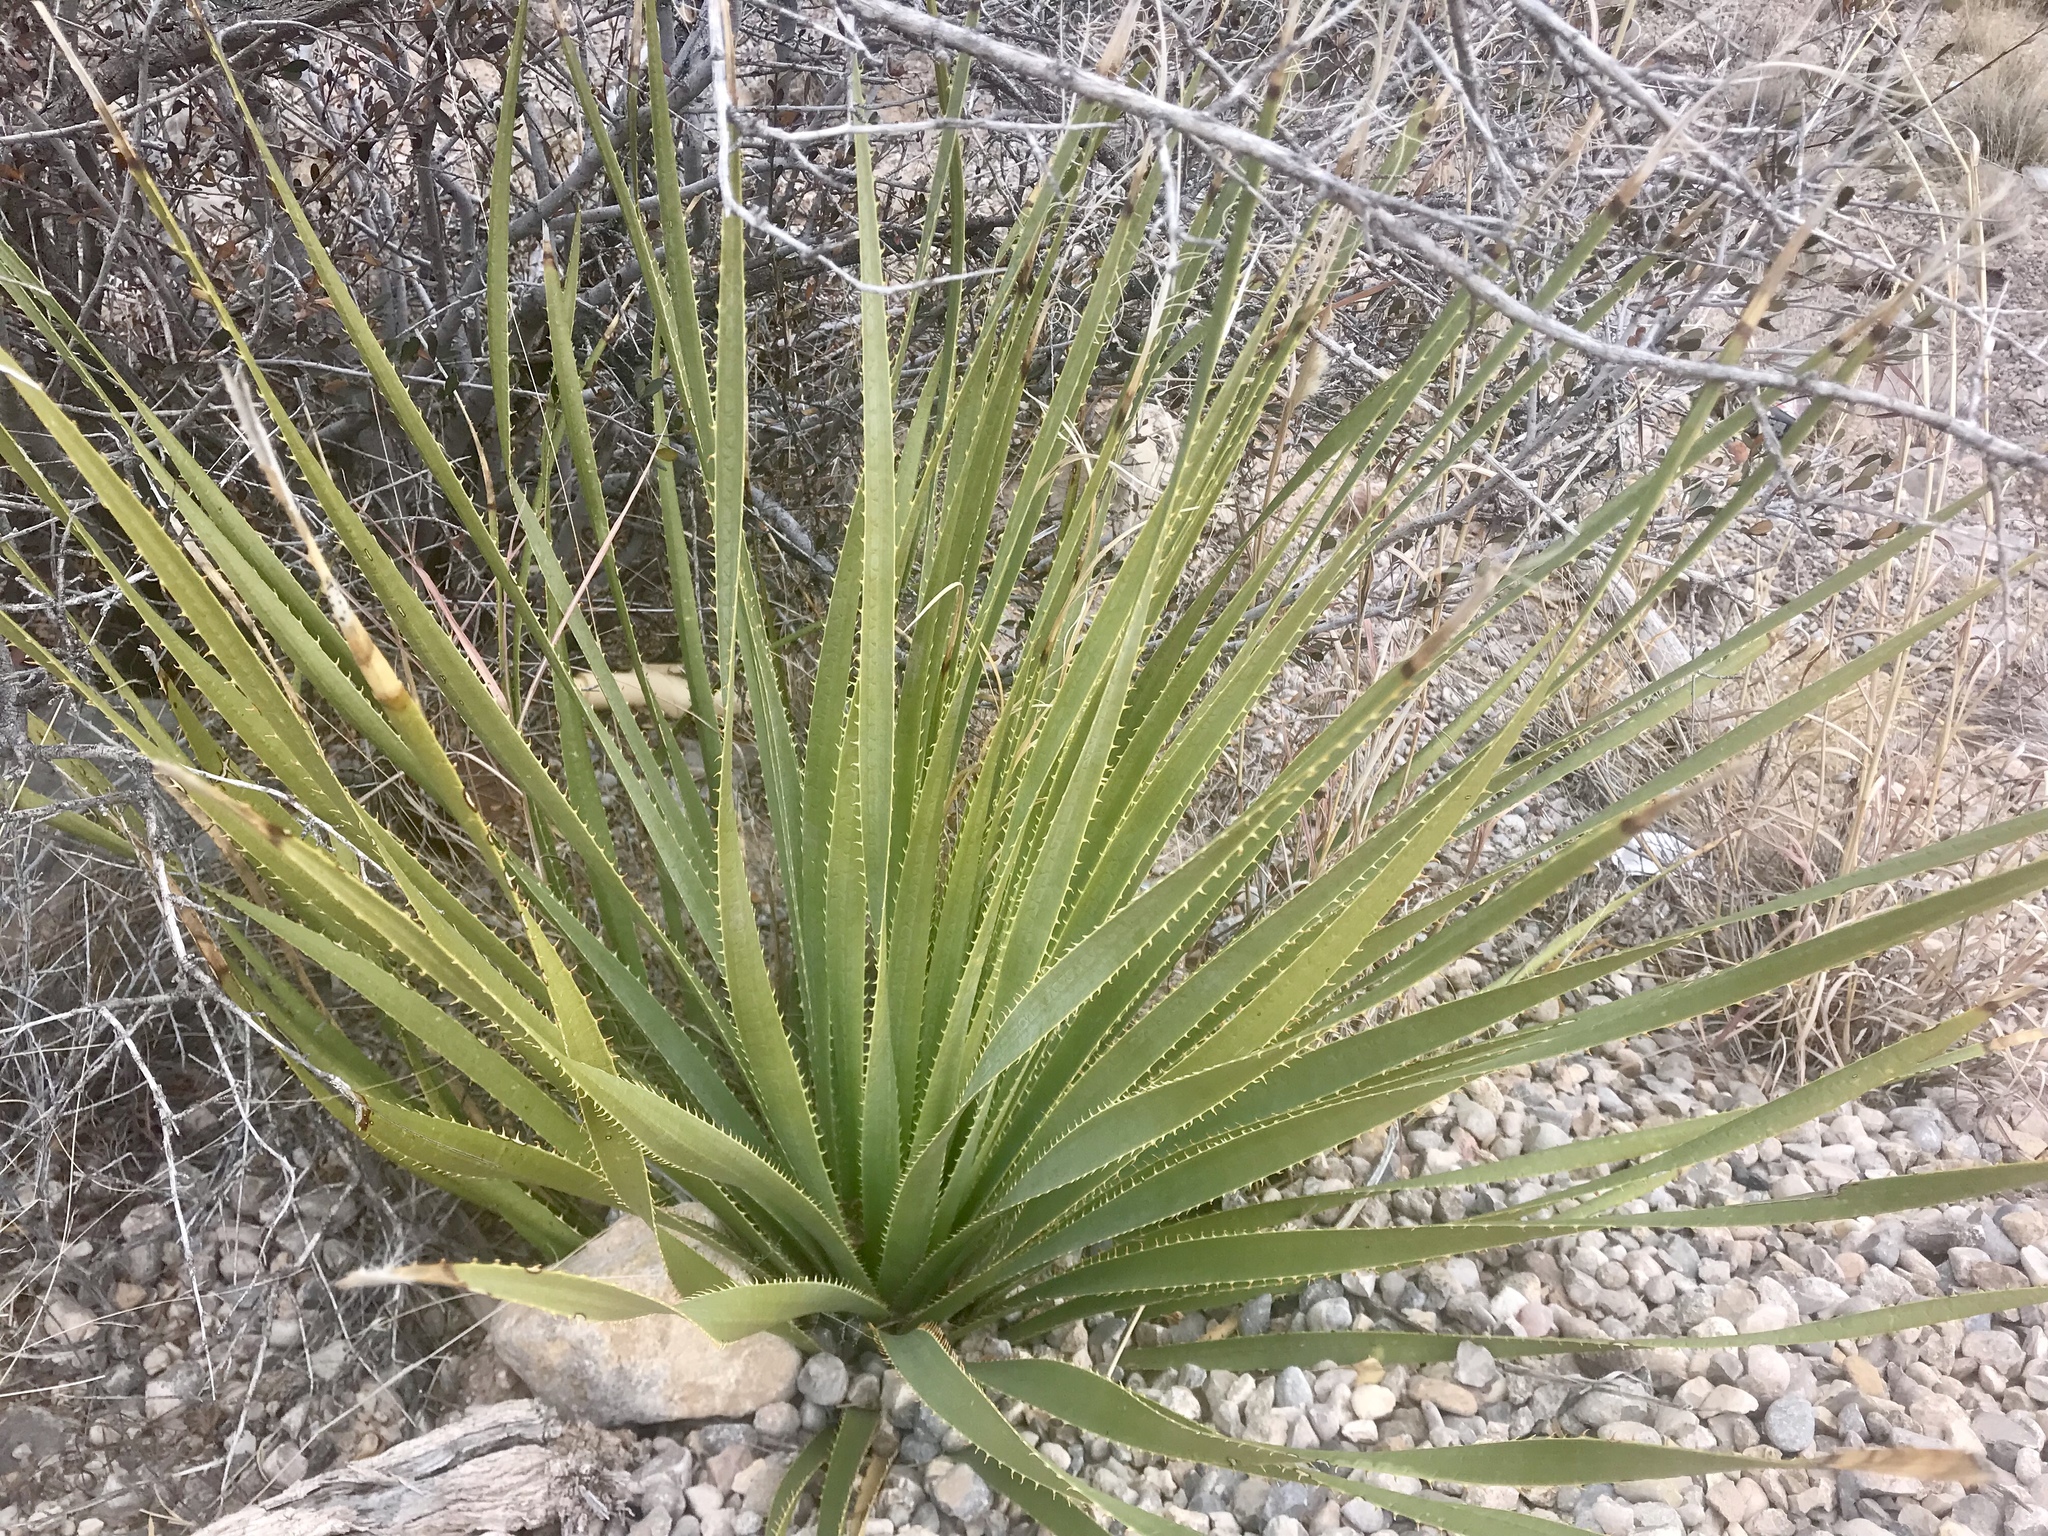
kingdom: Plantae
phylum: Tracheophyta
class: Liliopsida
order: Asparagales
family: Asparagaceae
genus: Dasylirion
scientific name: Dasylirion wheeleri
